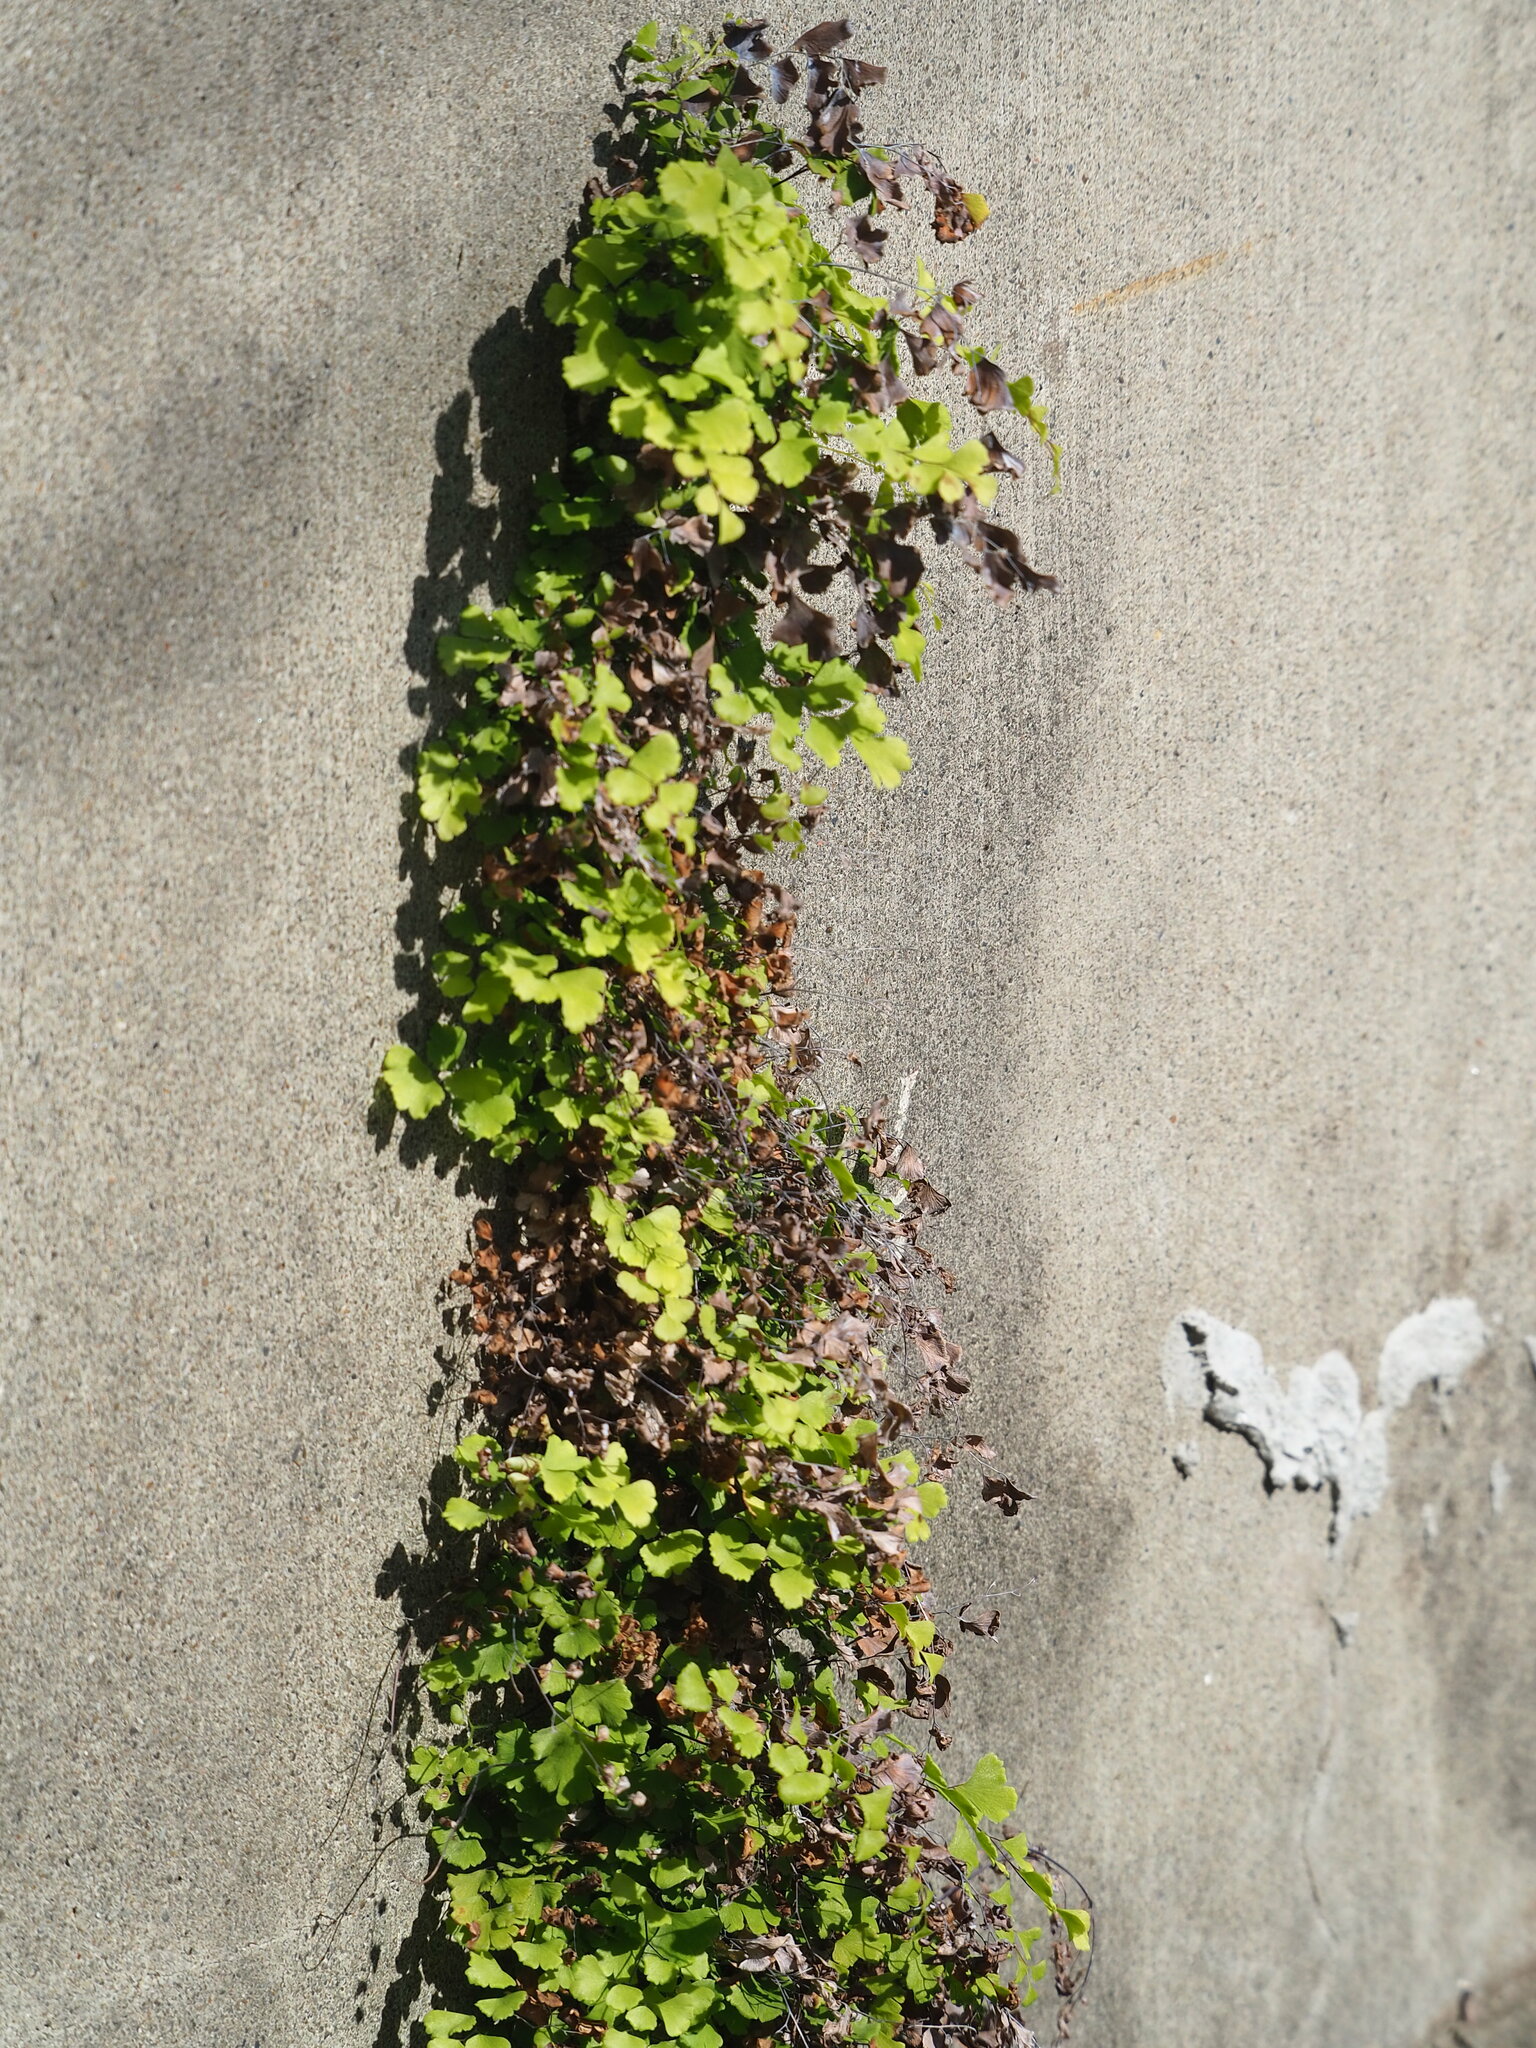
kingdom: Plantae
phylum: Tracheophyta
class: Polypodiopsida
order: Polypodiales
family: Pteridaceae
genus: Adiantum
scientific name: Adiantum capillus-veneris
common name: Maidenhair fern
